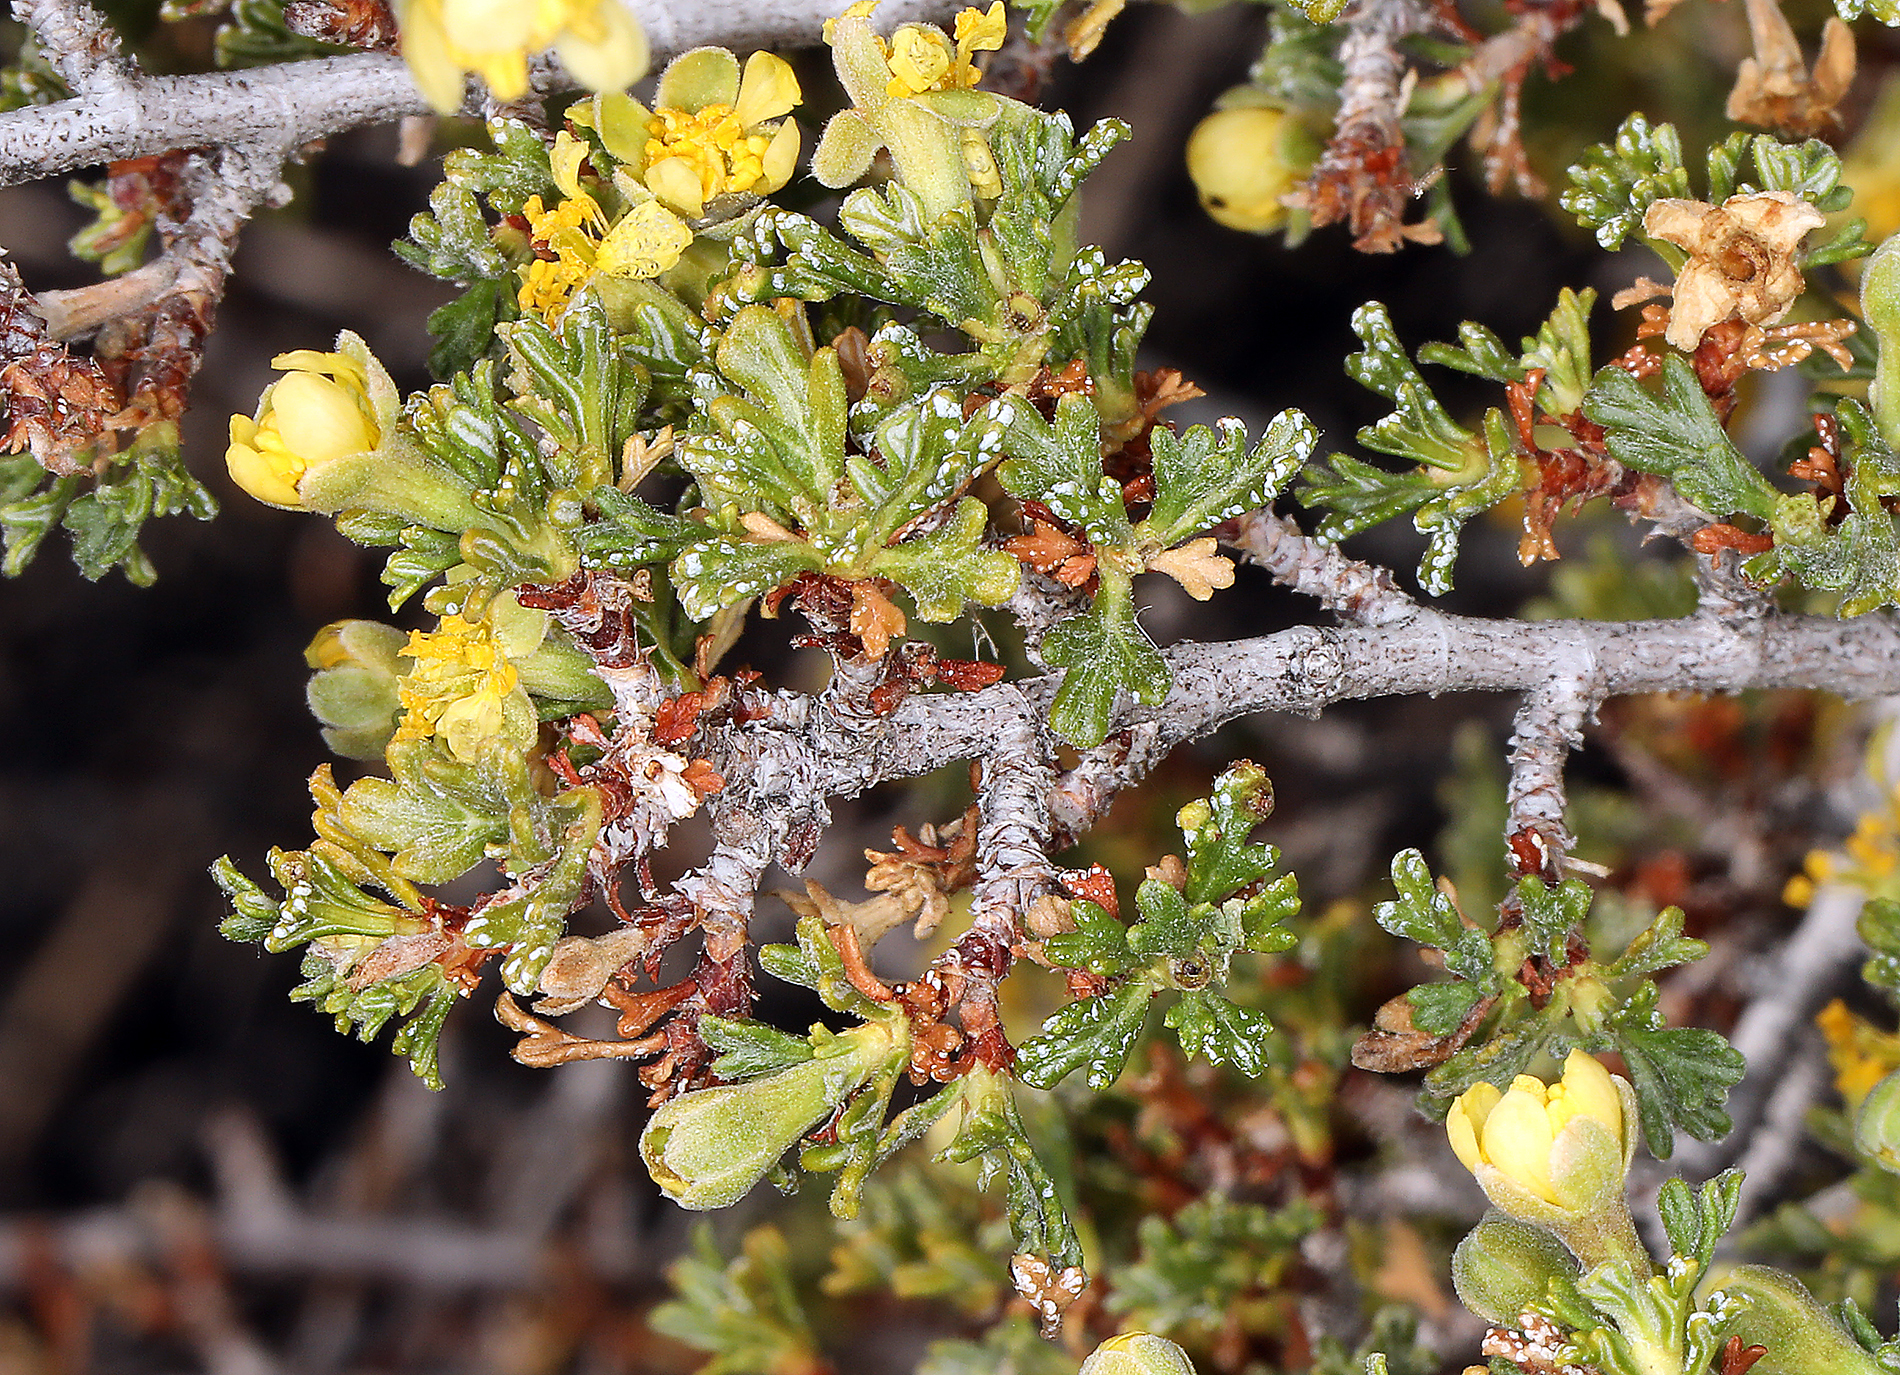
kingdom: Plantae
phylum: Tracheophyta
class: Magnoliopsida
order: Rosales
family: Rosaceae
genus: Purshia
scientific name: Purshia glandulosa
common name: Desert bitterbrush
